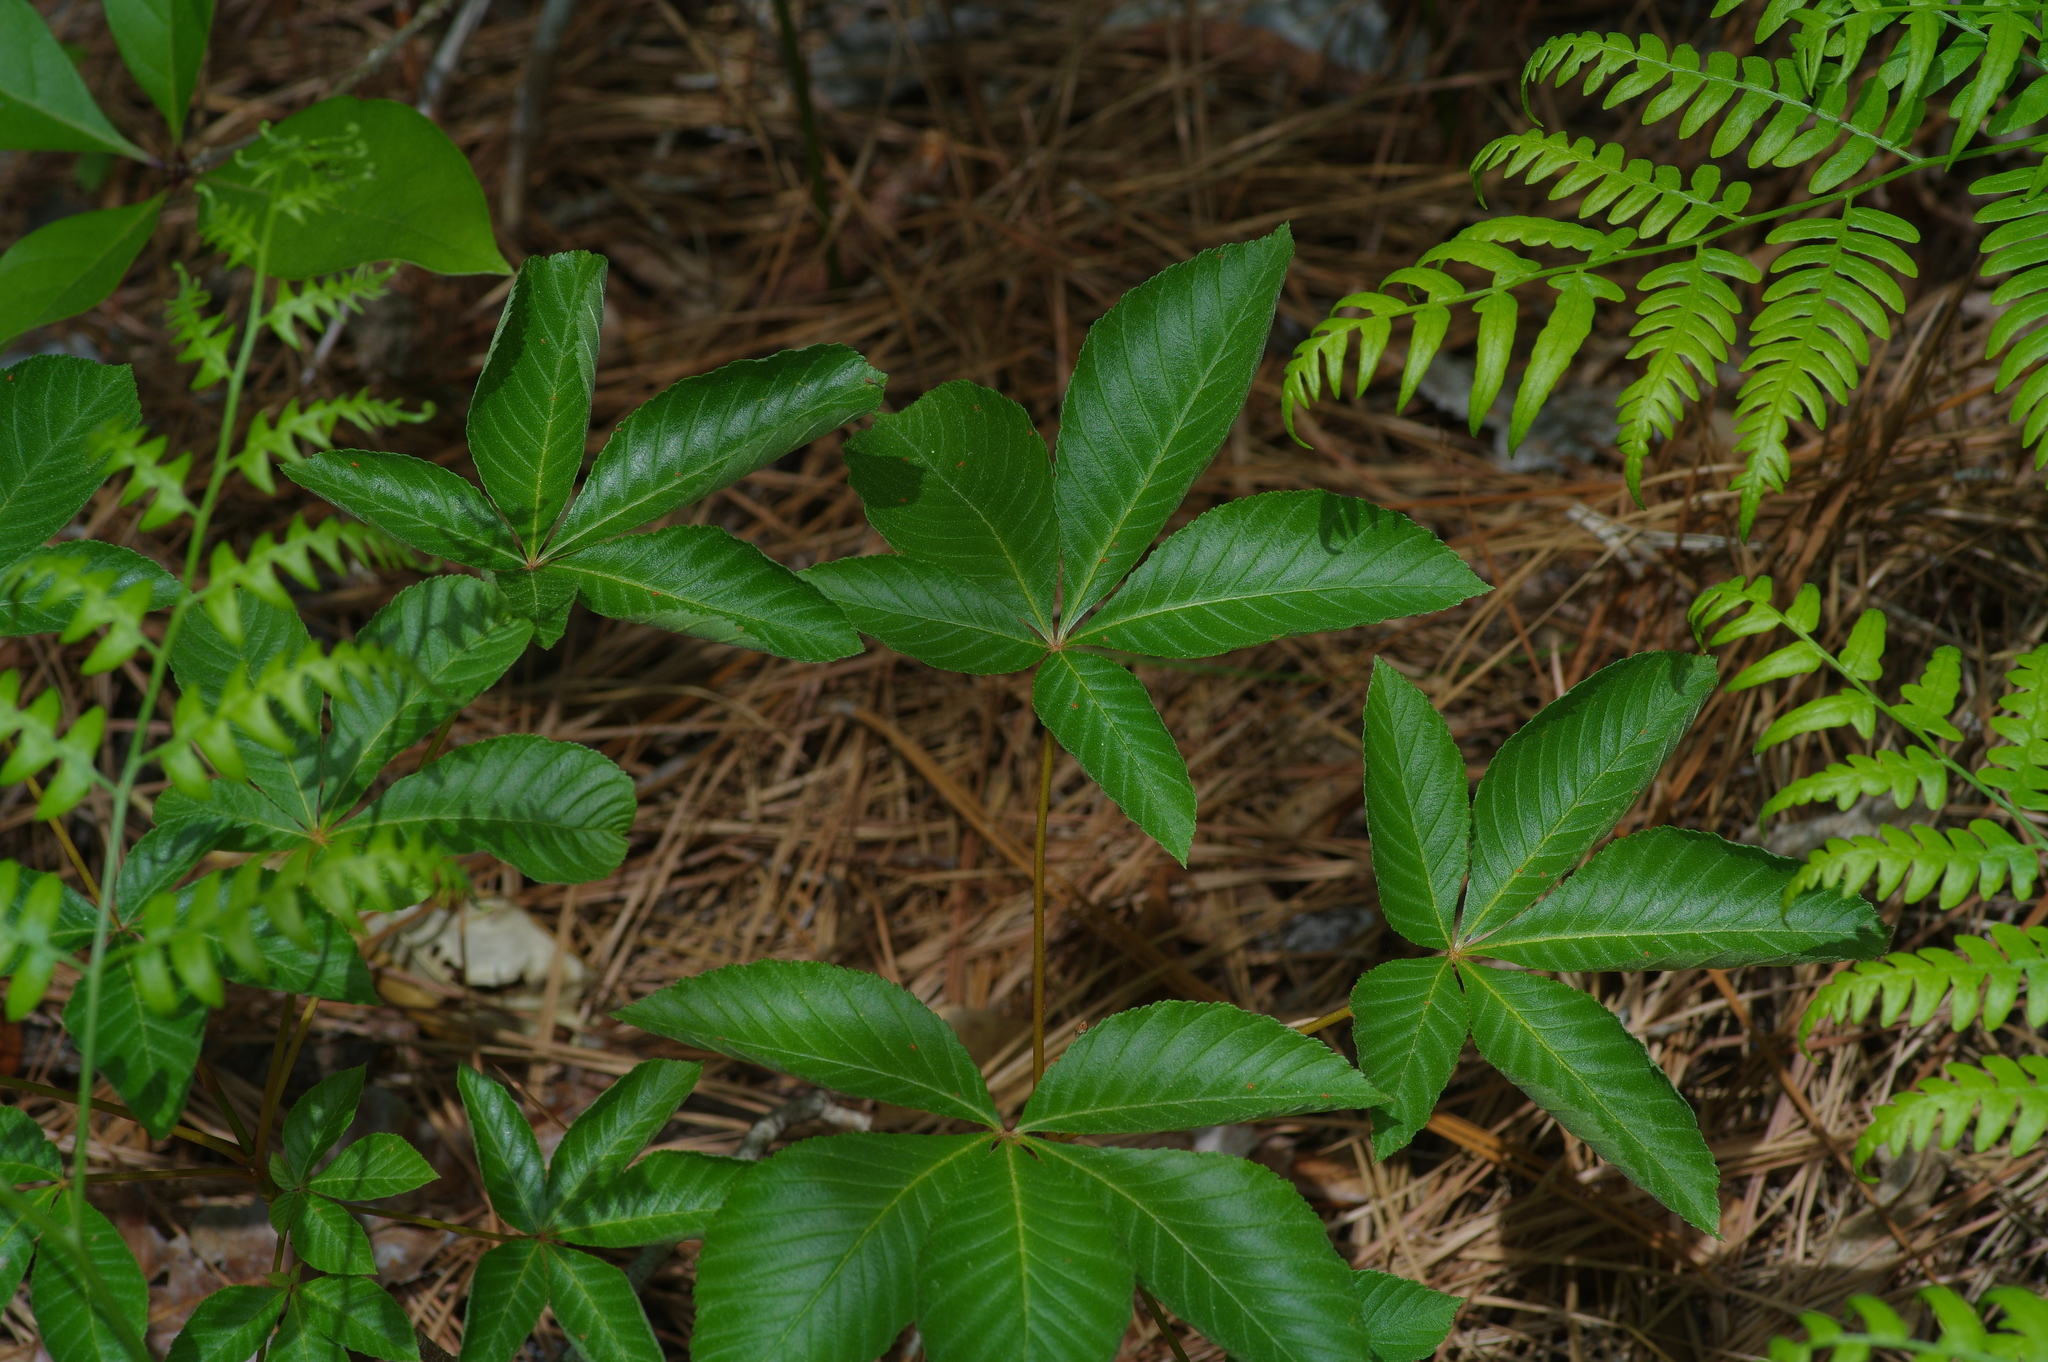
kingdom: Plantae
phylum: Tracheophyta
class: Magnoliopsida
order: Sapindales
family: Sapindaceae
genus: Aesculus
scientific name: Aesculus pavia
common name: Red buckeye
